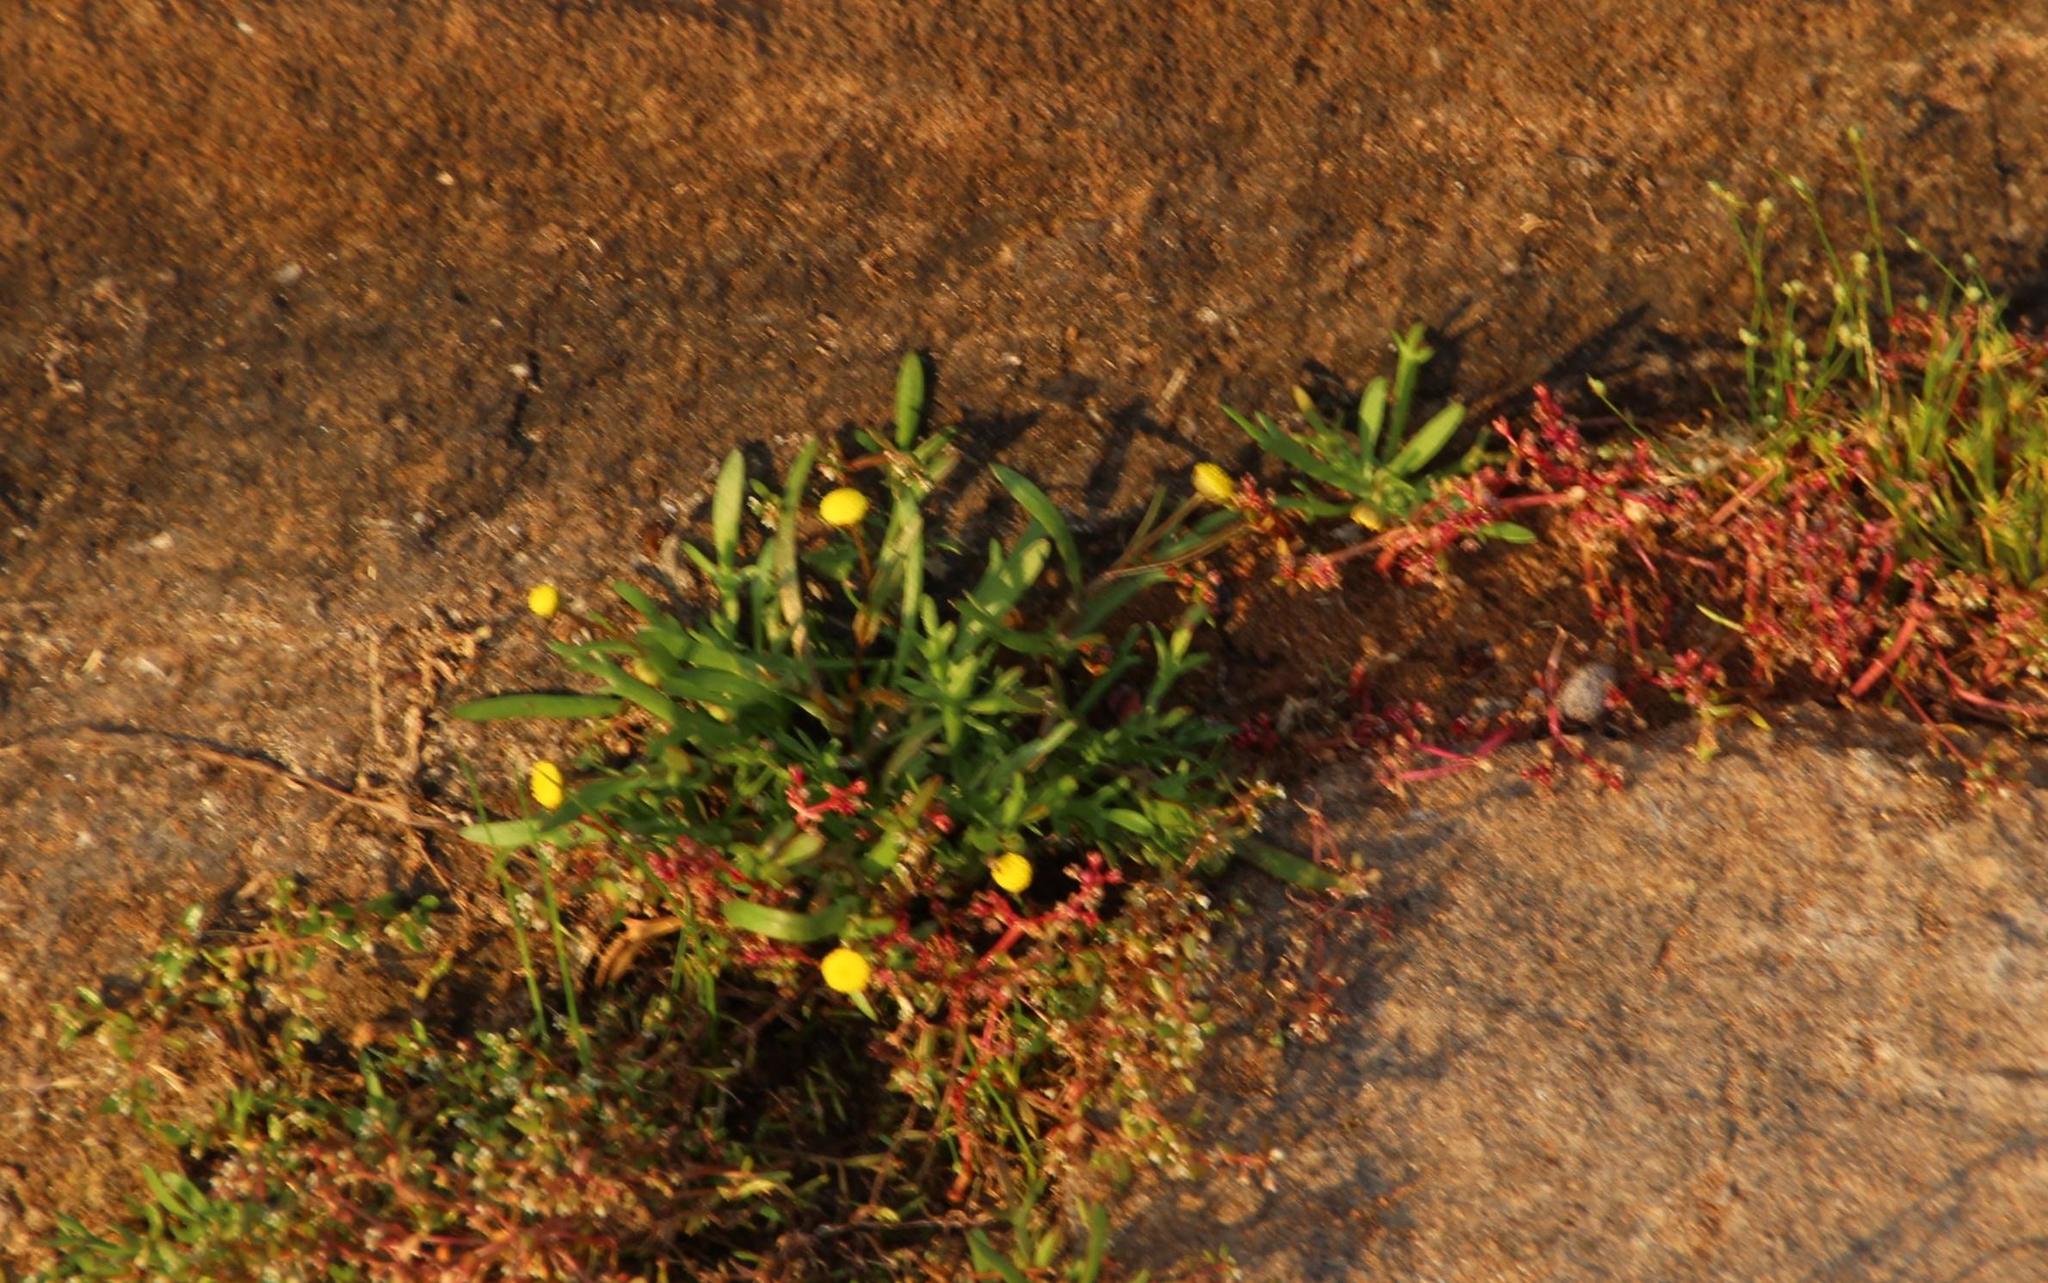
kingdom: Plantae
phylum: Tracheophyta
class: Magnoliopsida
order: Asterales
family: Asteraceae
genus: Cotula
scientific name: Cotula coronopifolia
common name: Buttonweed
